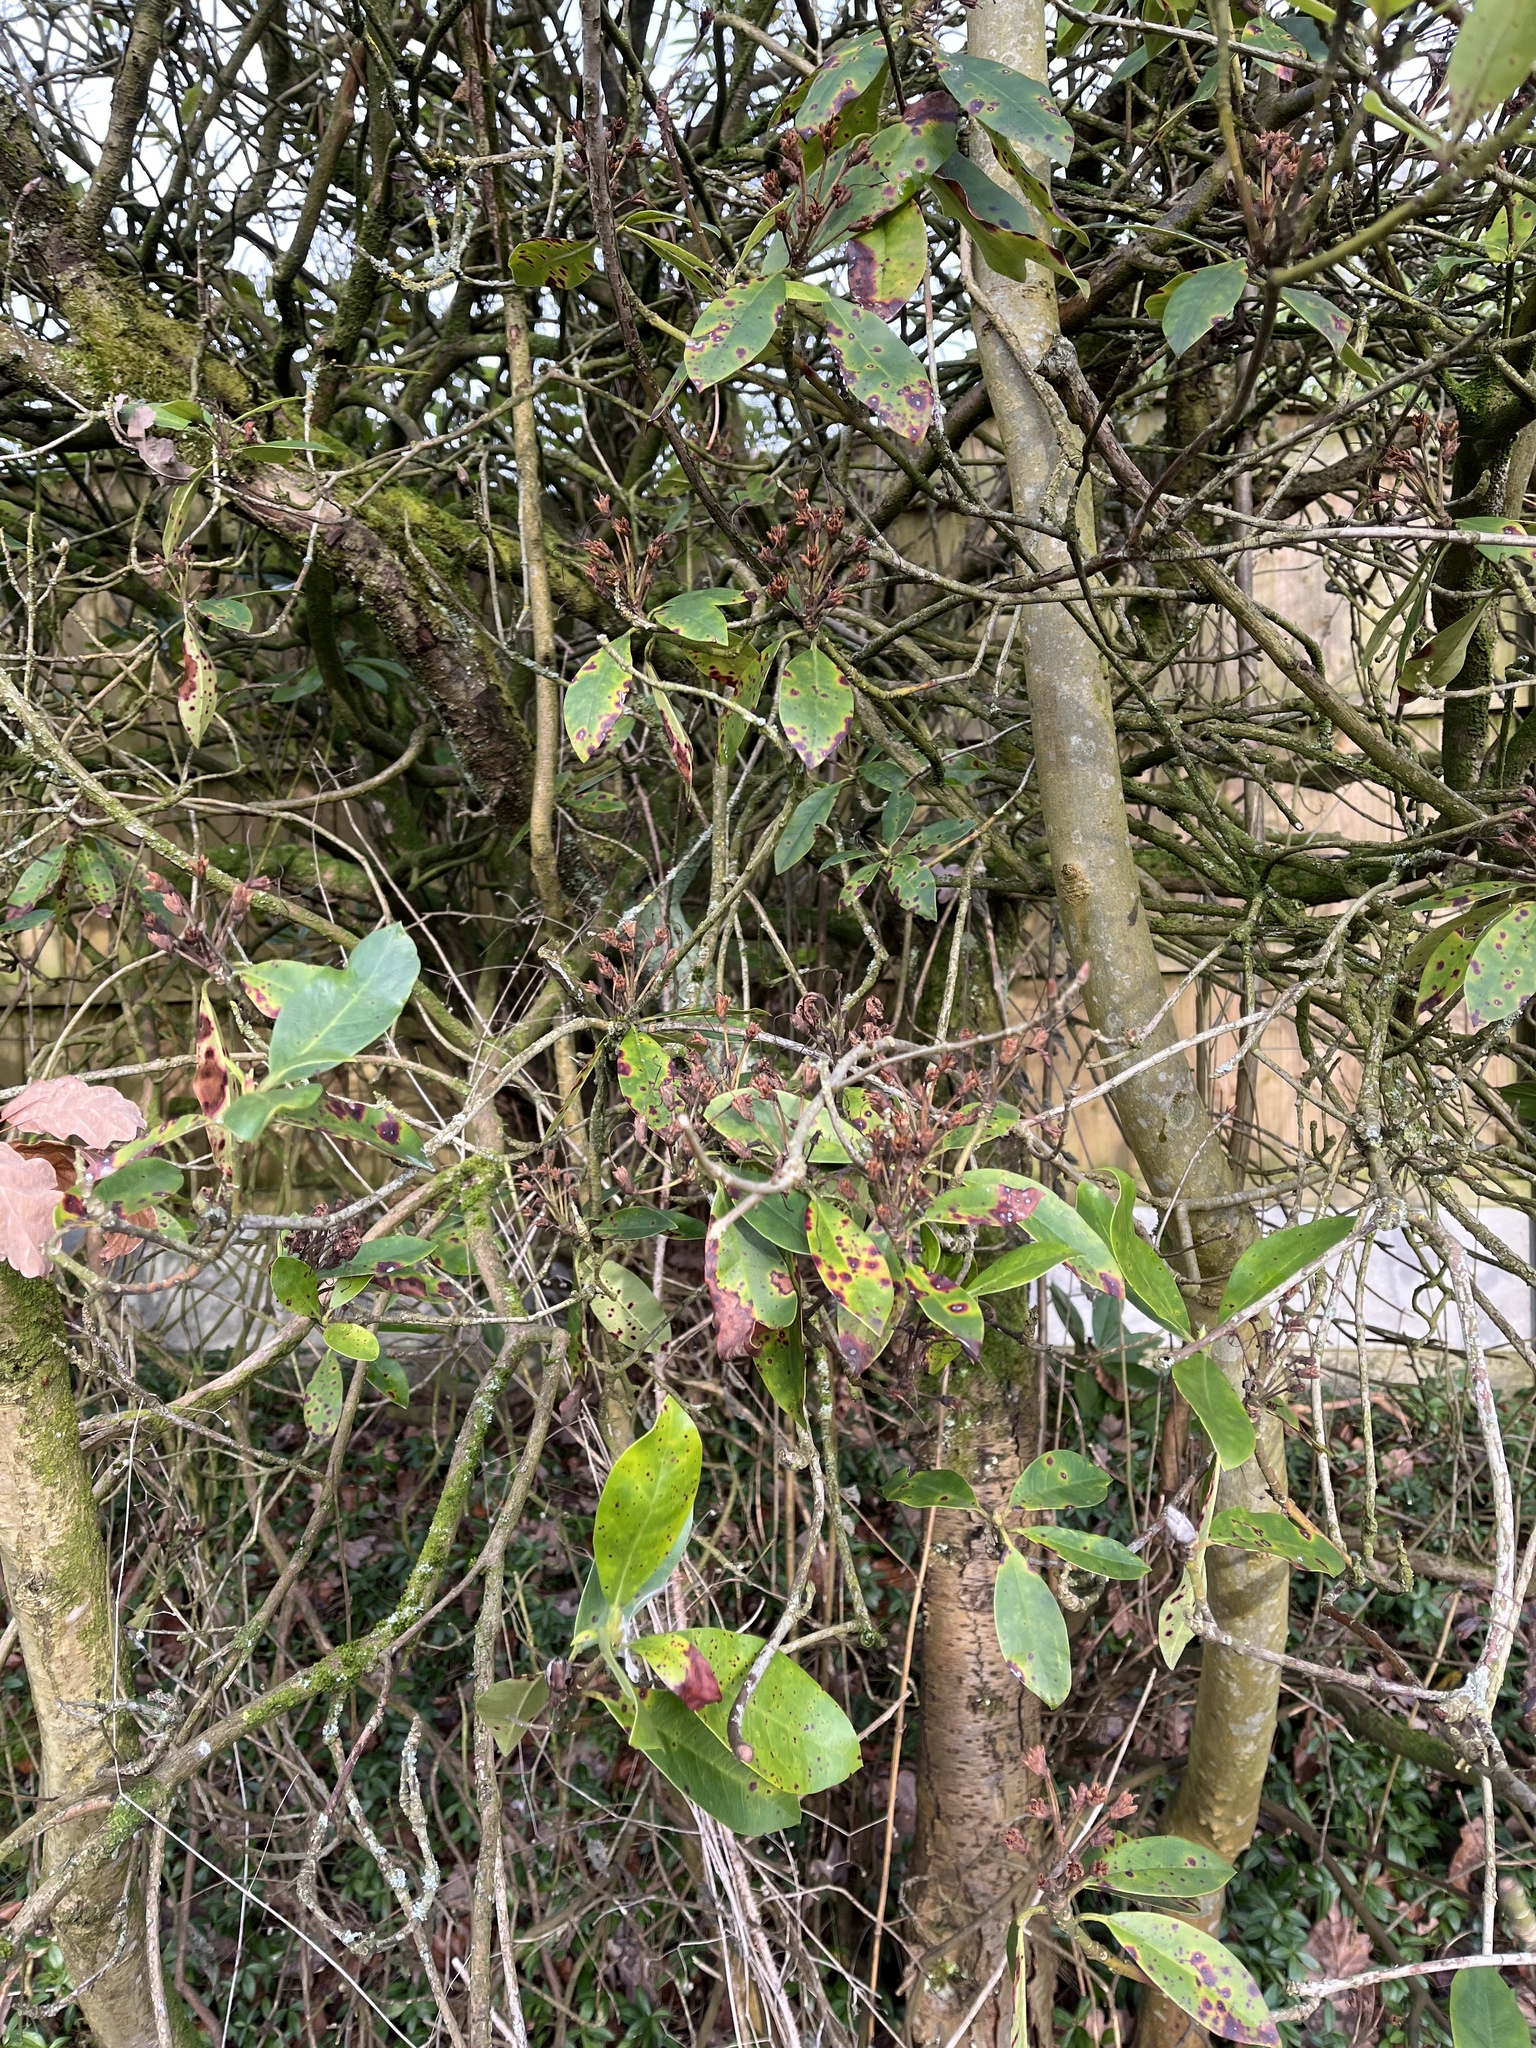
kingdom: Plantae
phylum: Tracheophyta
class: Magnoliopsida
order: Ericales
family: Ericaceae
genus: Rhododendron
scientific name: Rhododendron ponticum
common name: Rhododendron
